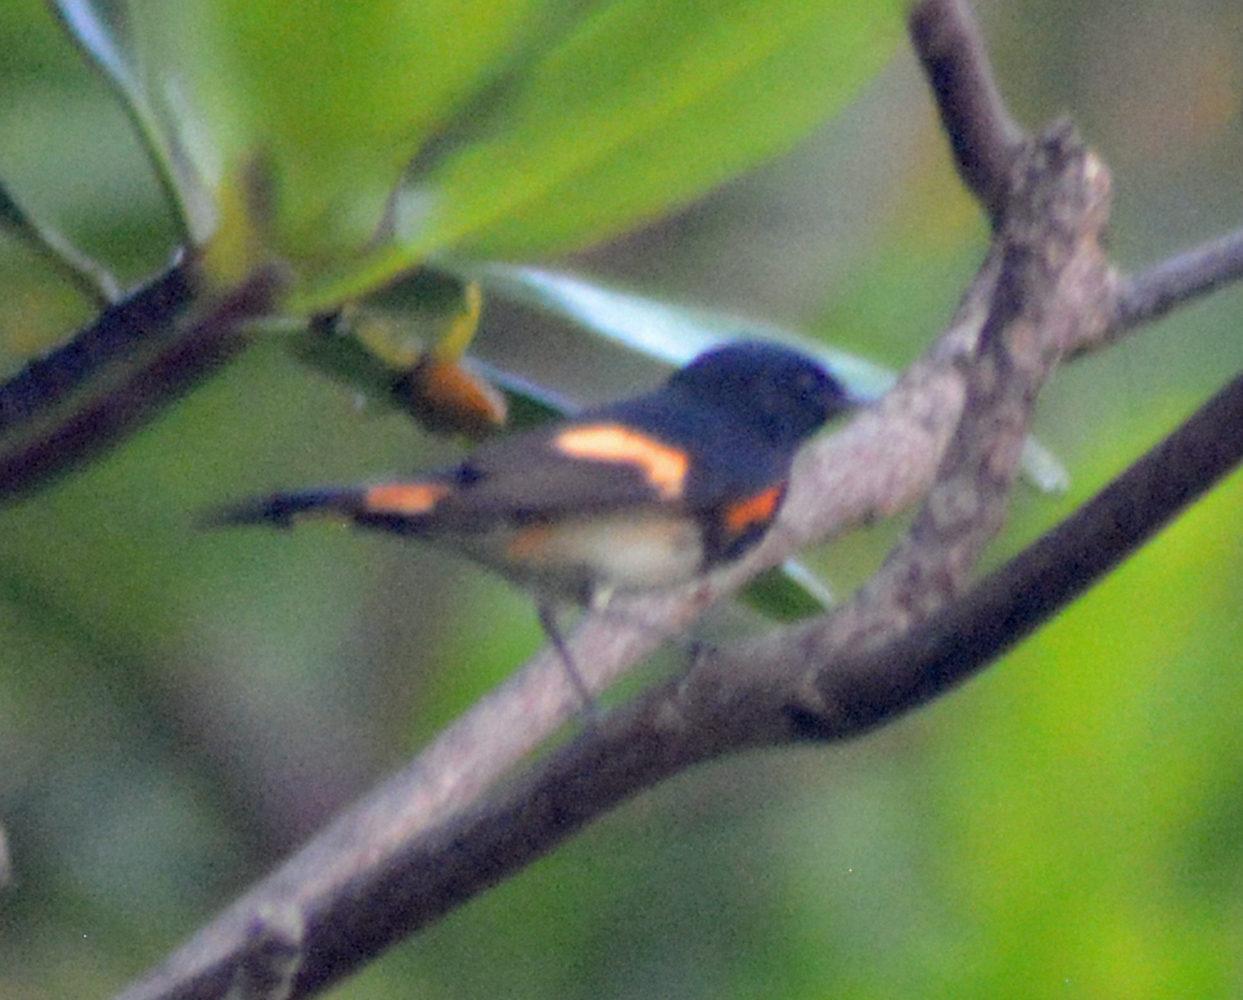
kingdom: Animalia
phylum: Chordata
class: Aves
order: Passeriformes
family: Parulidae
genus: Setophaga
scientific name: Setophaga ruticilla
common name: American redstart
